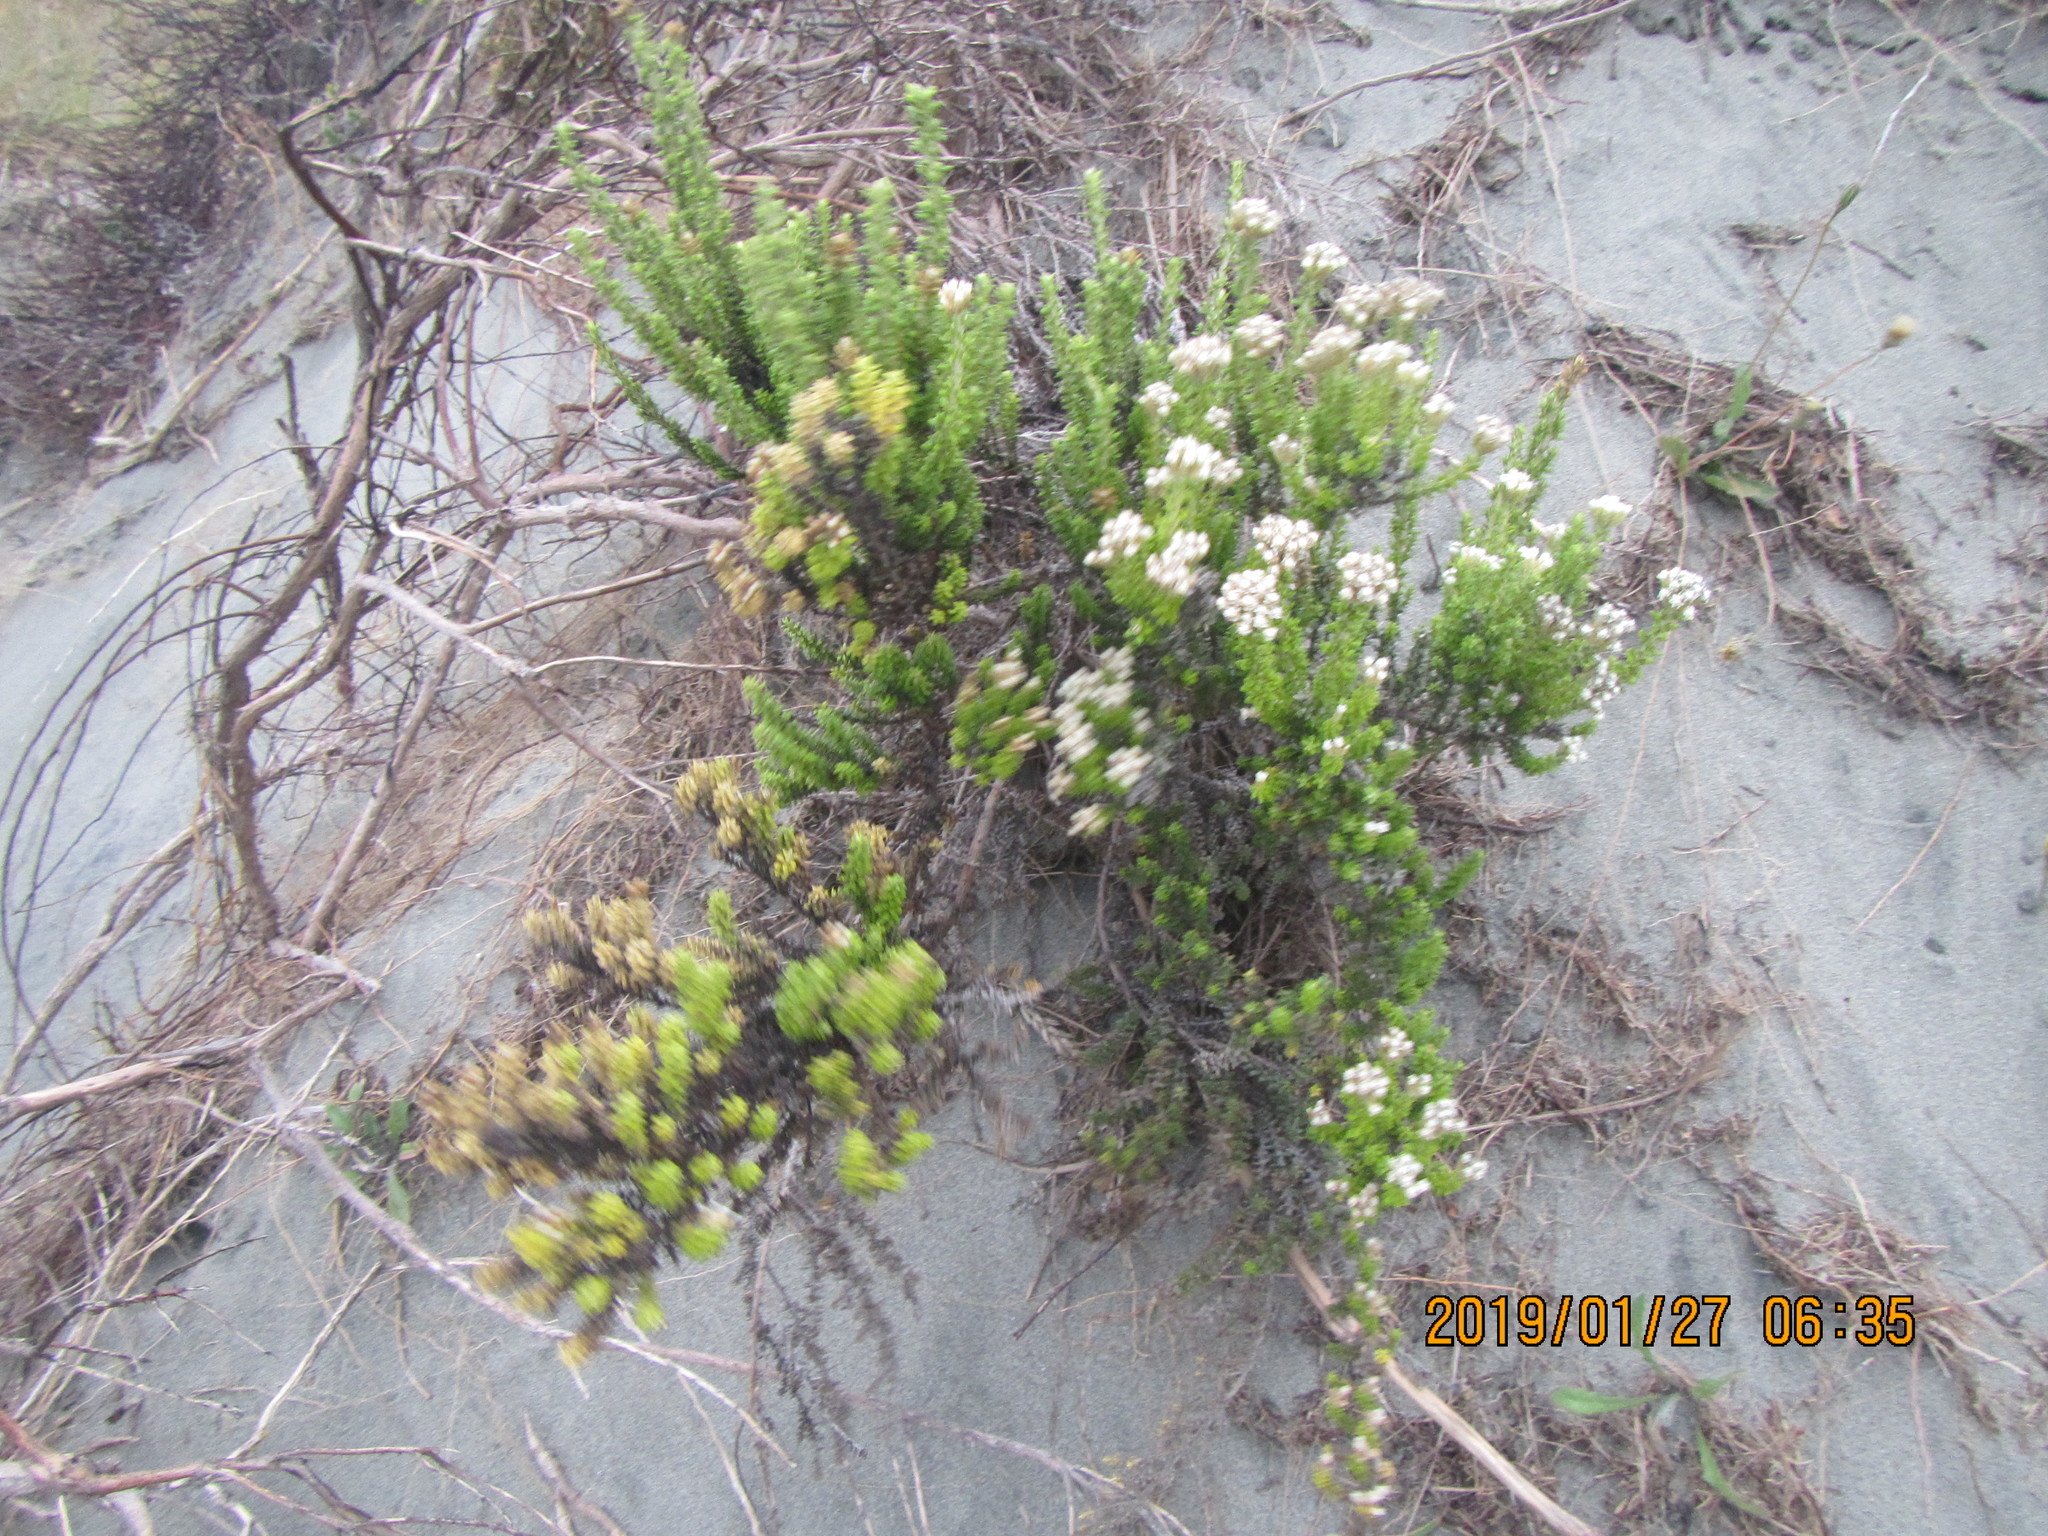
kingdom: Plantae
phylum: Tracheophyta
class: Magnoliopsida
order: Asterales
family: Asteraceae
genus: Ozothamnus
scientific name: Ozothamnus leptophyllus
